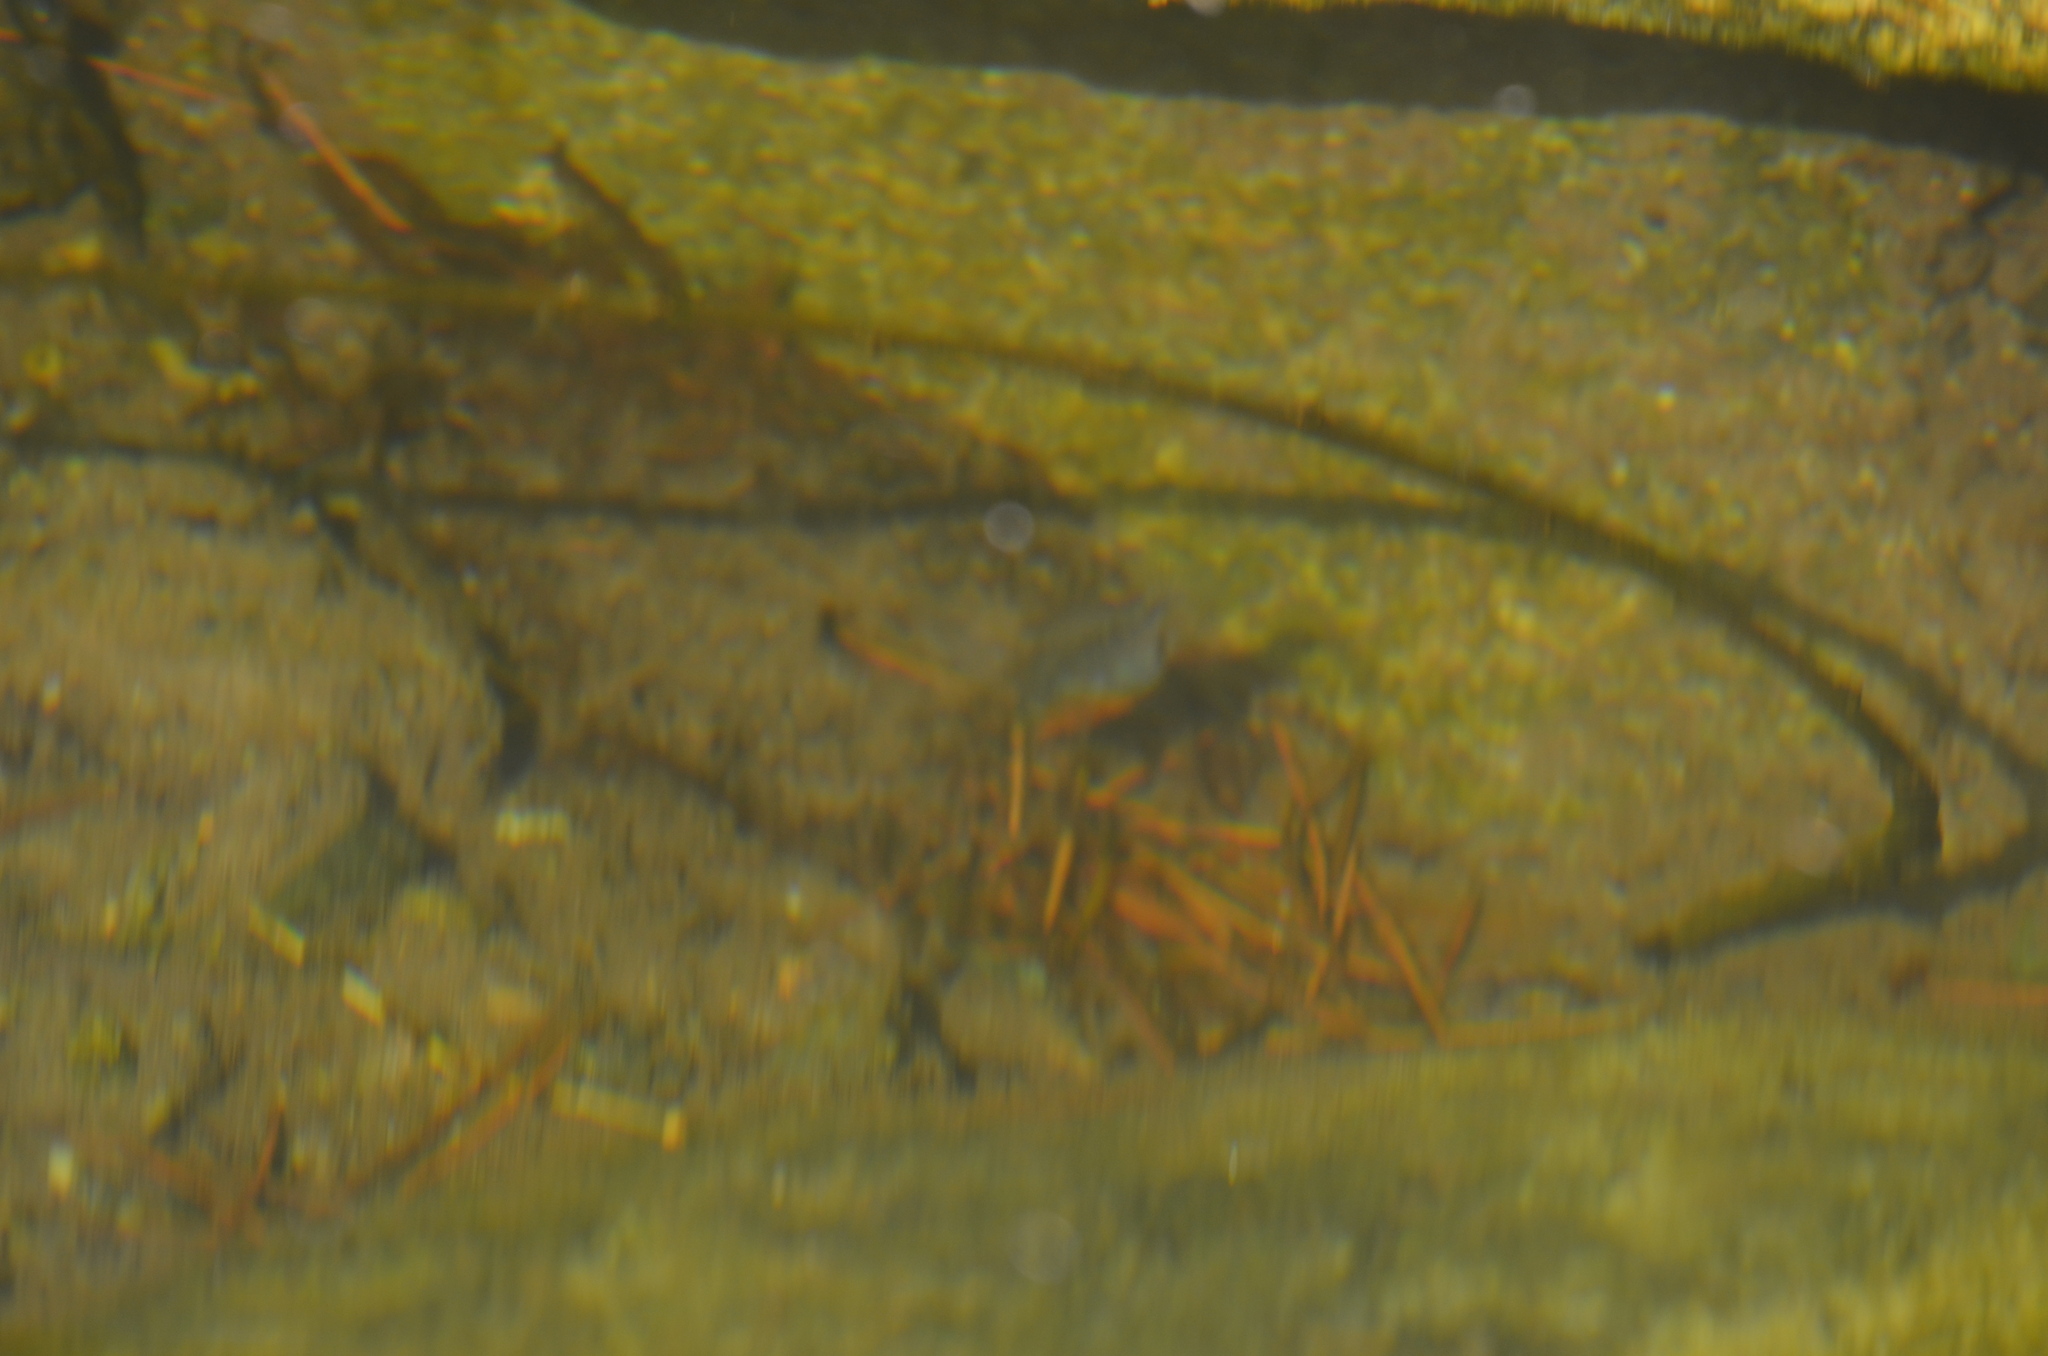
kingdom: Animalia
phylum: Chordata
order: Gasterosteiformes
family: Gasterosteidae
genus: Gasterosteus
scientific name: Gasterosteus aculeatus
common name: Three-spined stickleback
